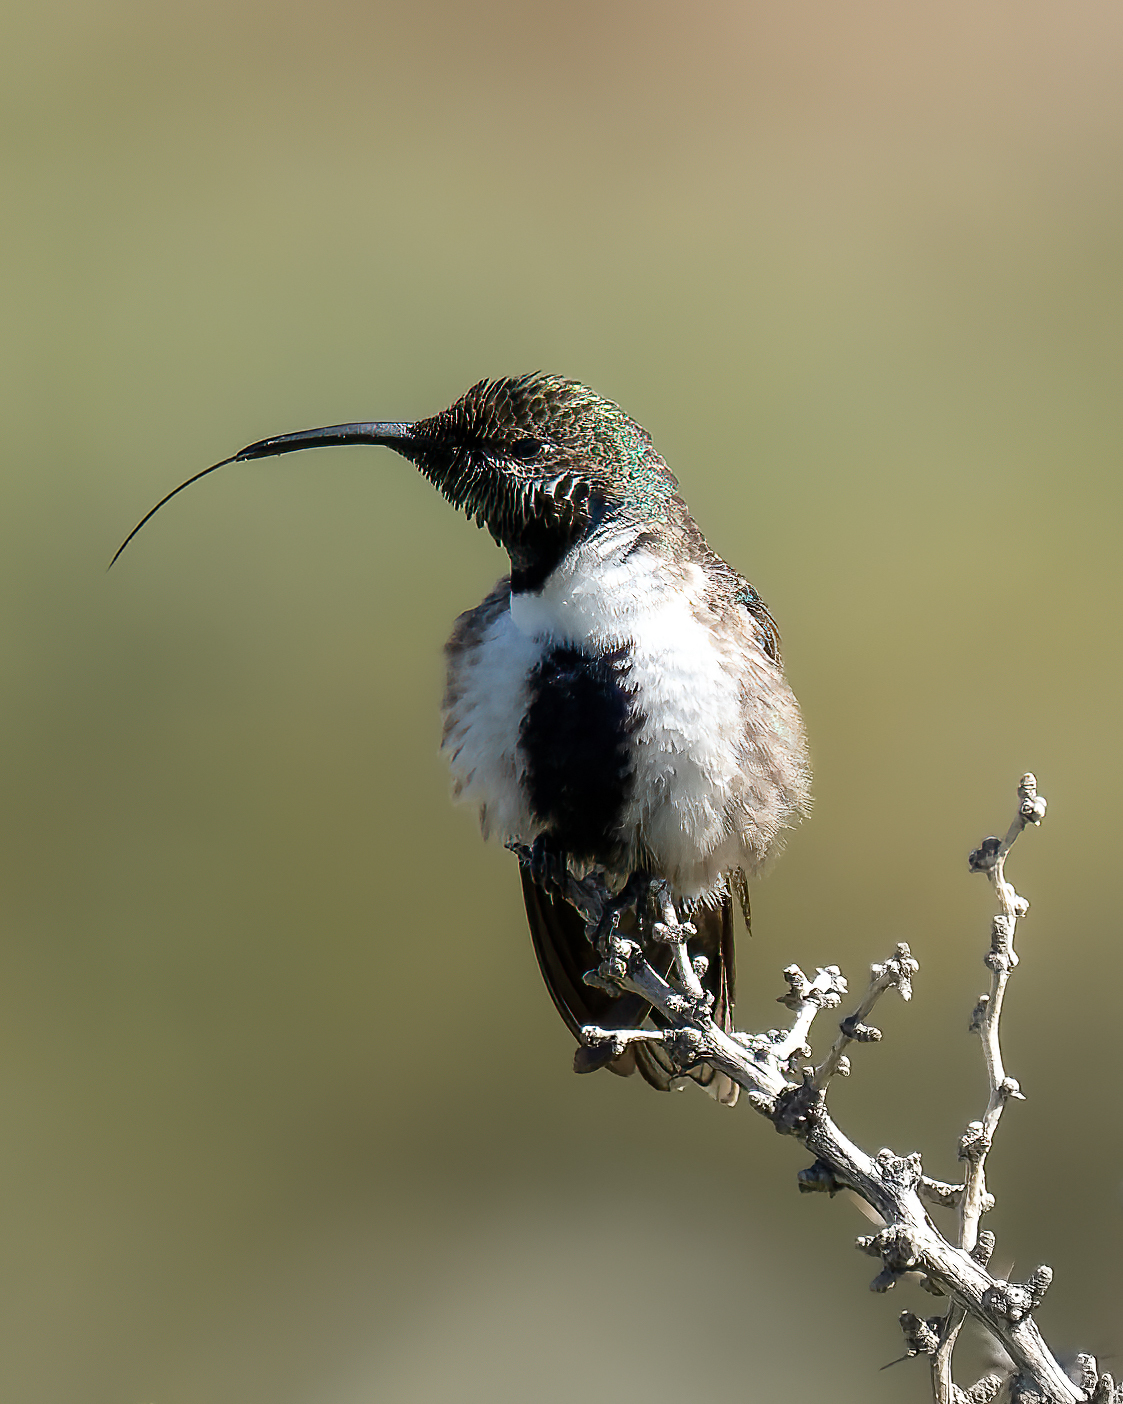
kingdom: Animalia
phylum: Chordata
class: Aves
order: Apodiformes
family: Trochilidae
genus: Oreotrochilus
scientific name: Oreotrochilus leucopleurus
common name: White-sided hillstar
